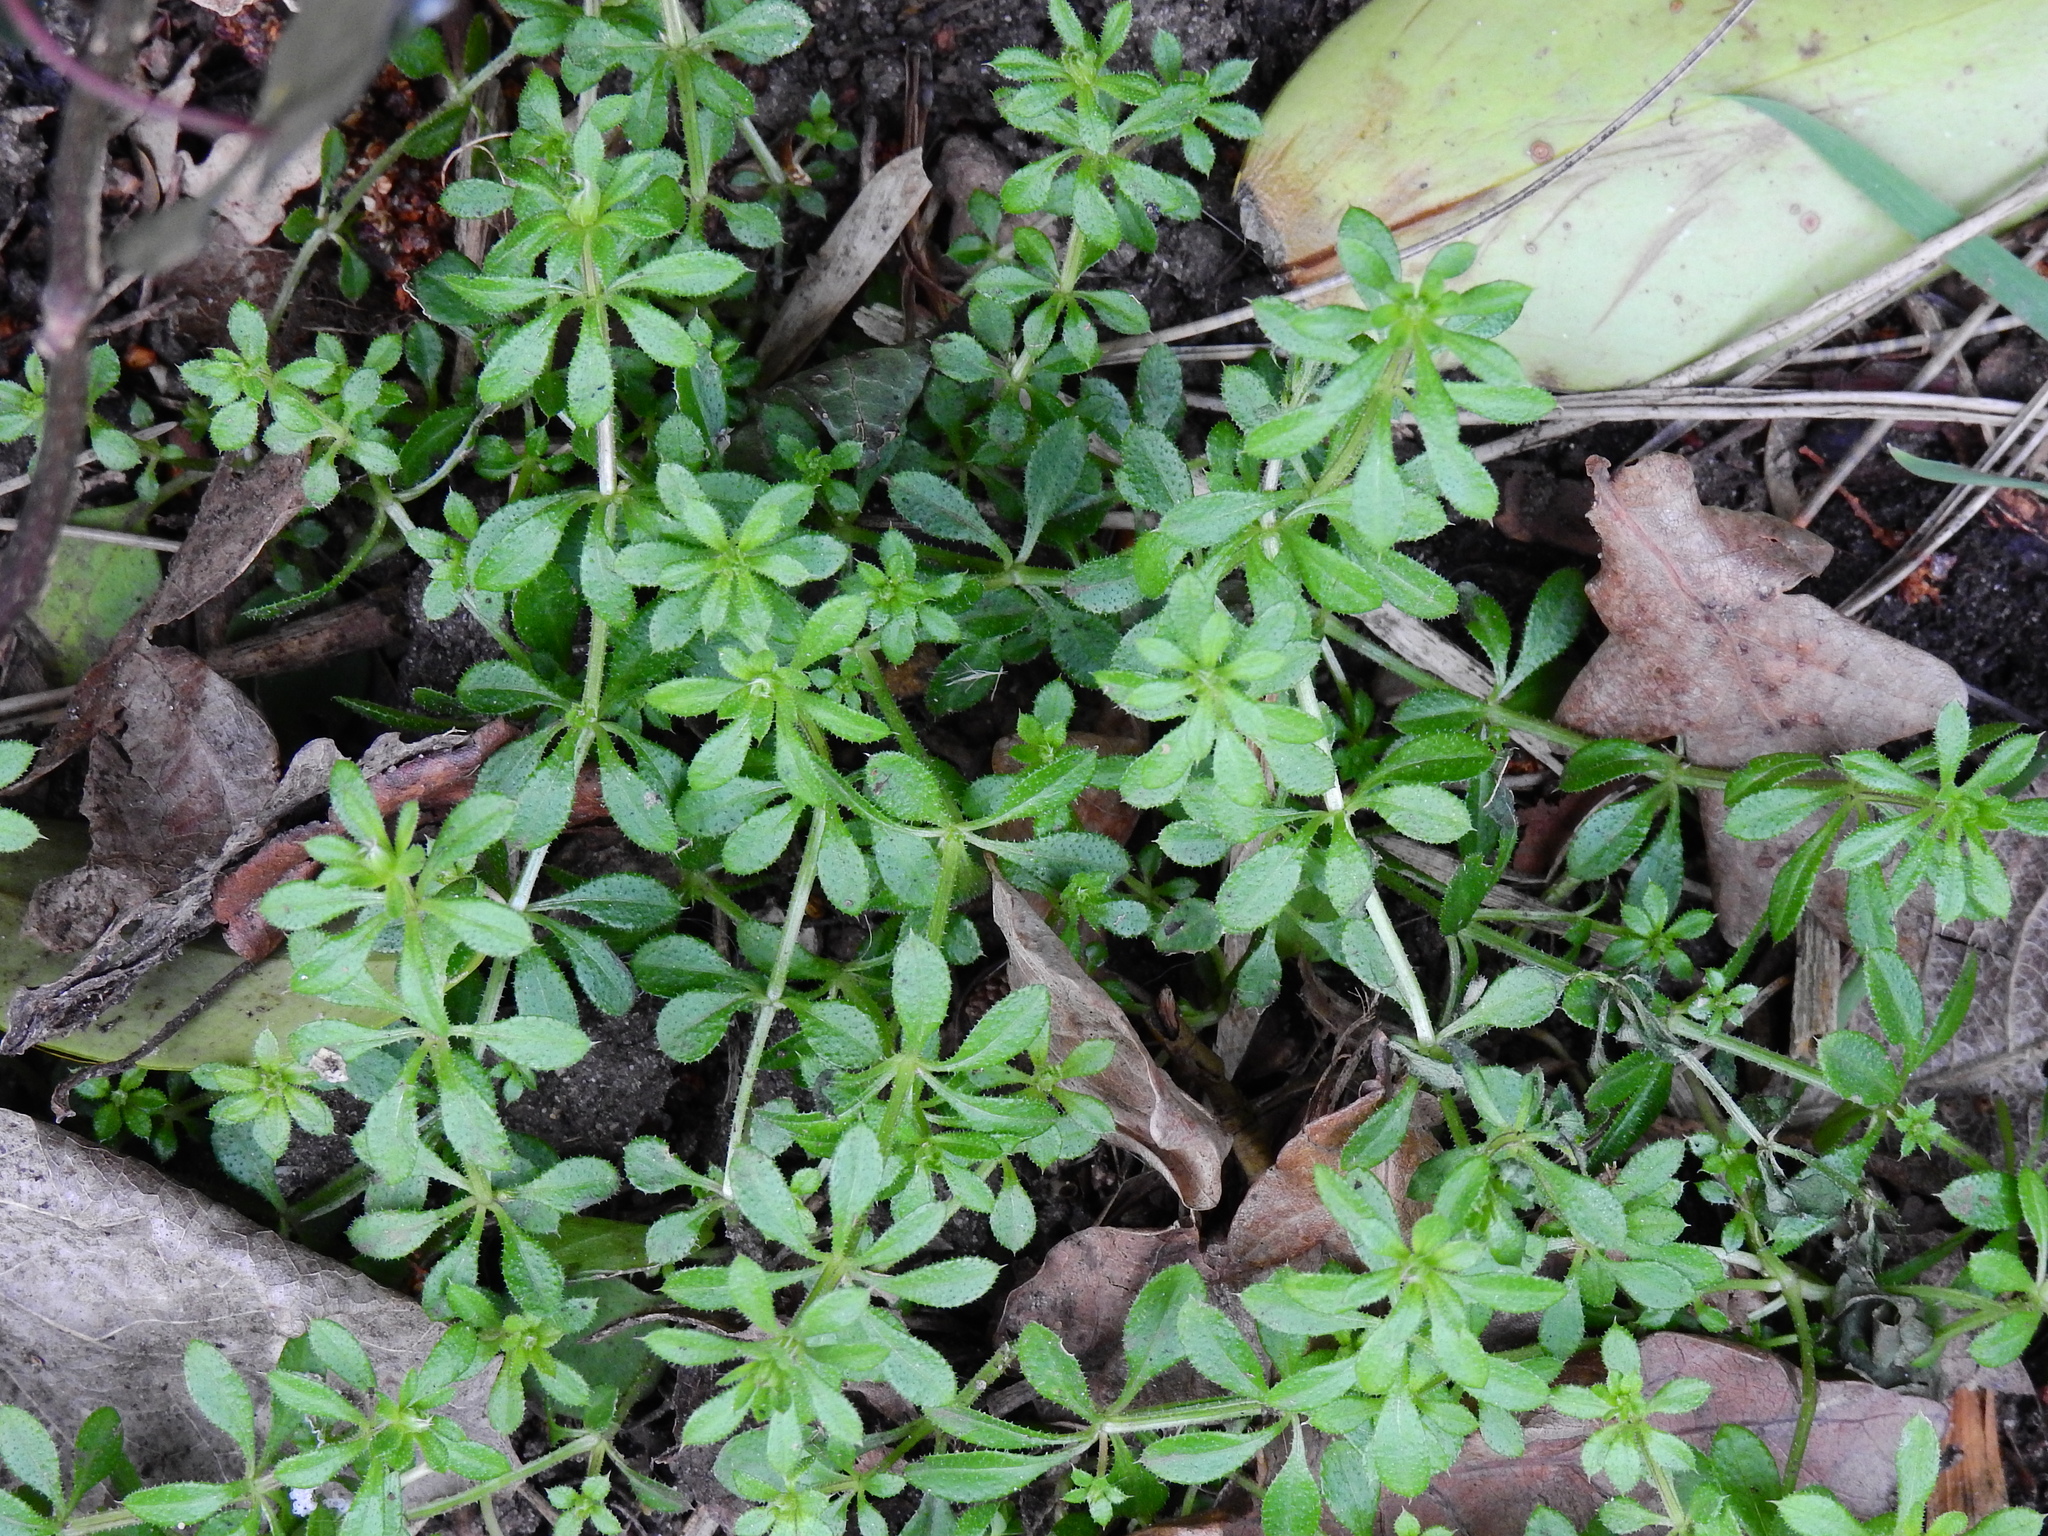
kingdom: Plantae
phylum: Tracheophyta
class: Magnoliopsida
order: Gentianales
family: Rubiaceae
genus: Galium
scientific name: Galium aparine
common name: Cleavers
